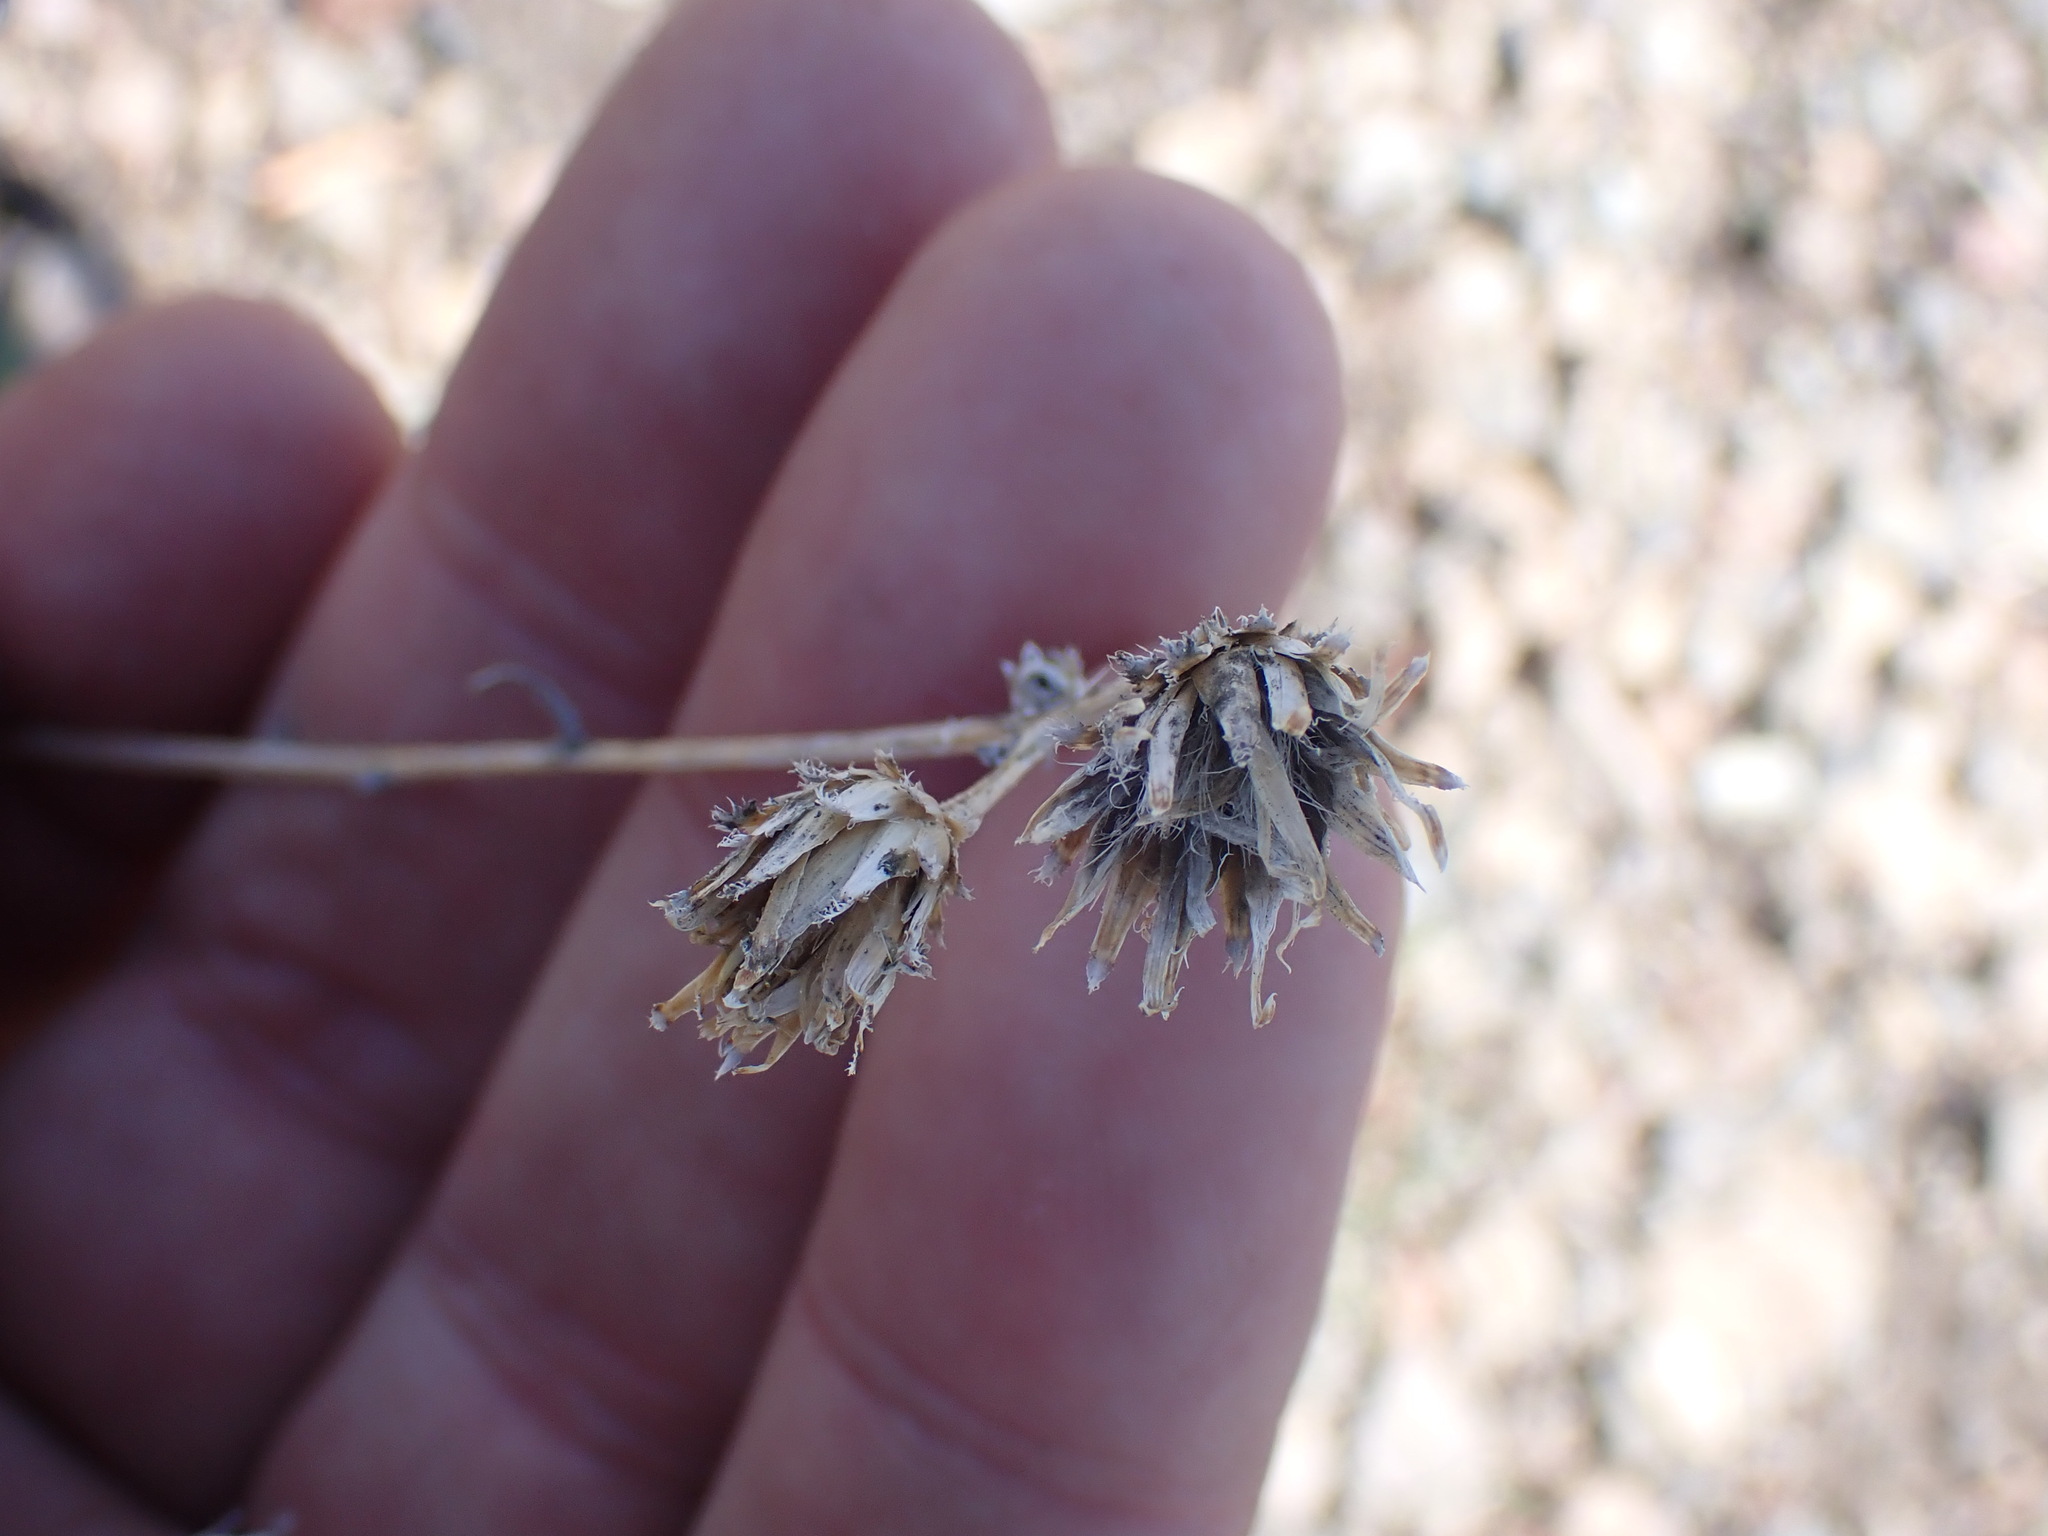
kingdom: Plantae
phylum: Tracheophyta
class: Magnoliopsida
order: Asterales
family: Asteraceae
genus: Centaurea
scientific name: Centaurea stoebe
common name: Spotted knapweed
